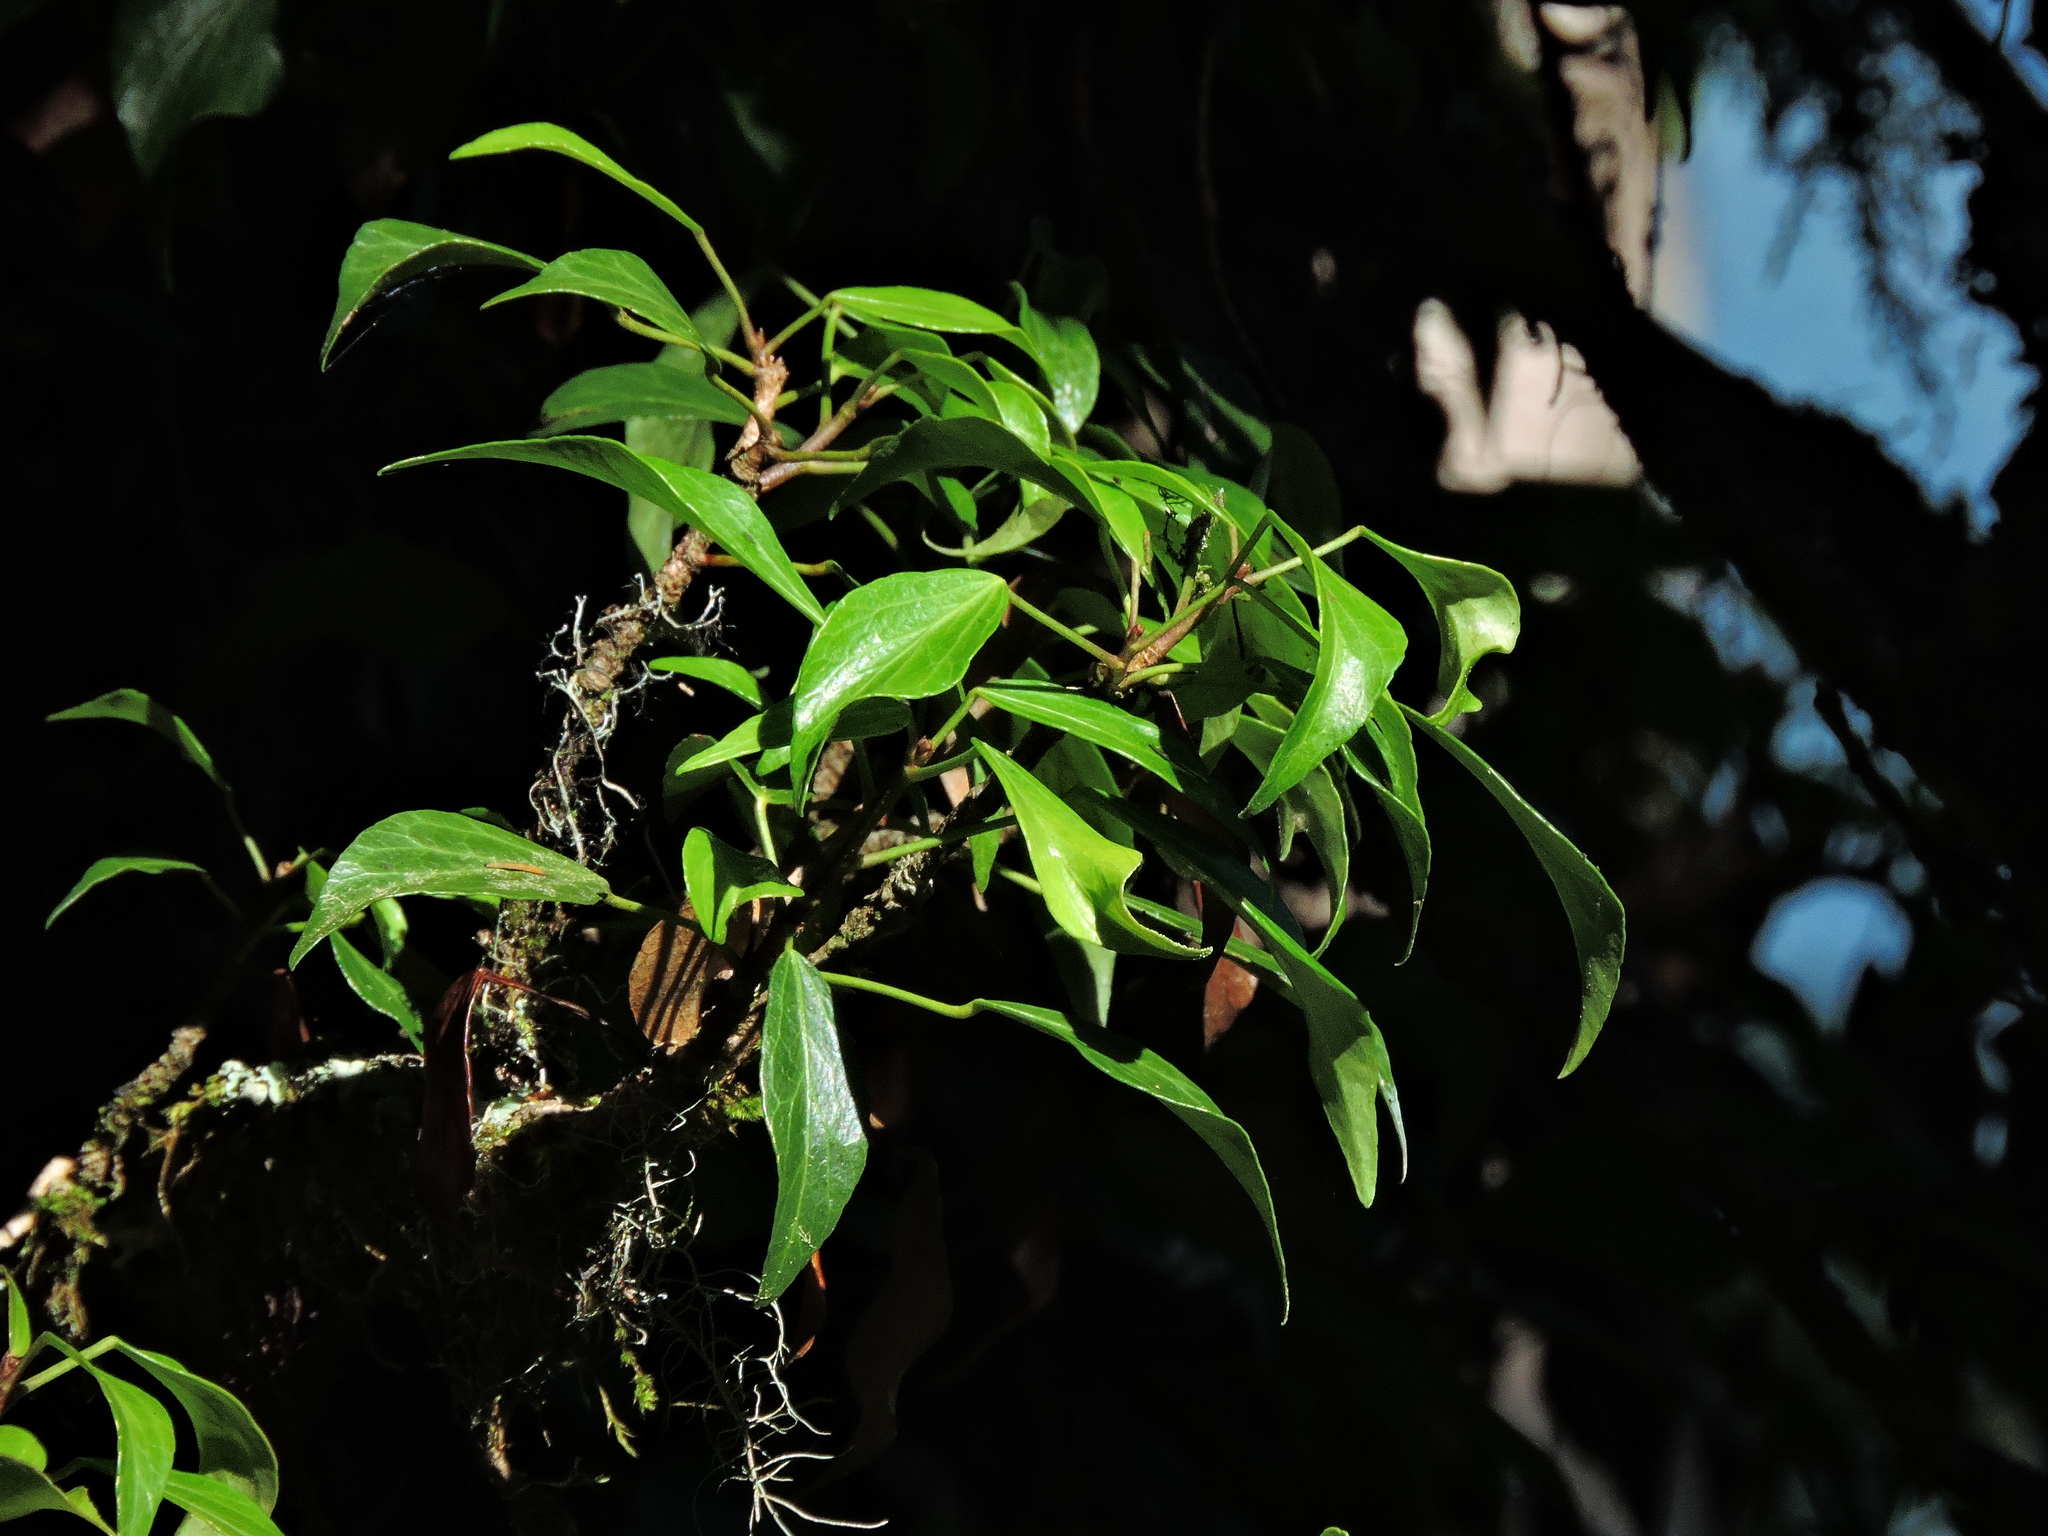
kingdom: Plantae
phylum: Tracheophyta
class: Magnoliopsida
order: Apiales
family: Araliaceae
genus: Hedera
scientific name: Hedera rhombea
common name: Japanese ivy
